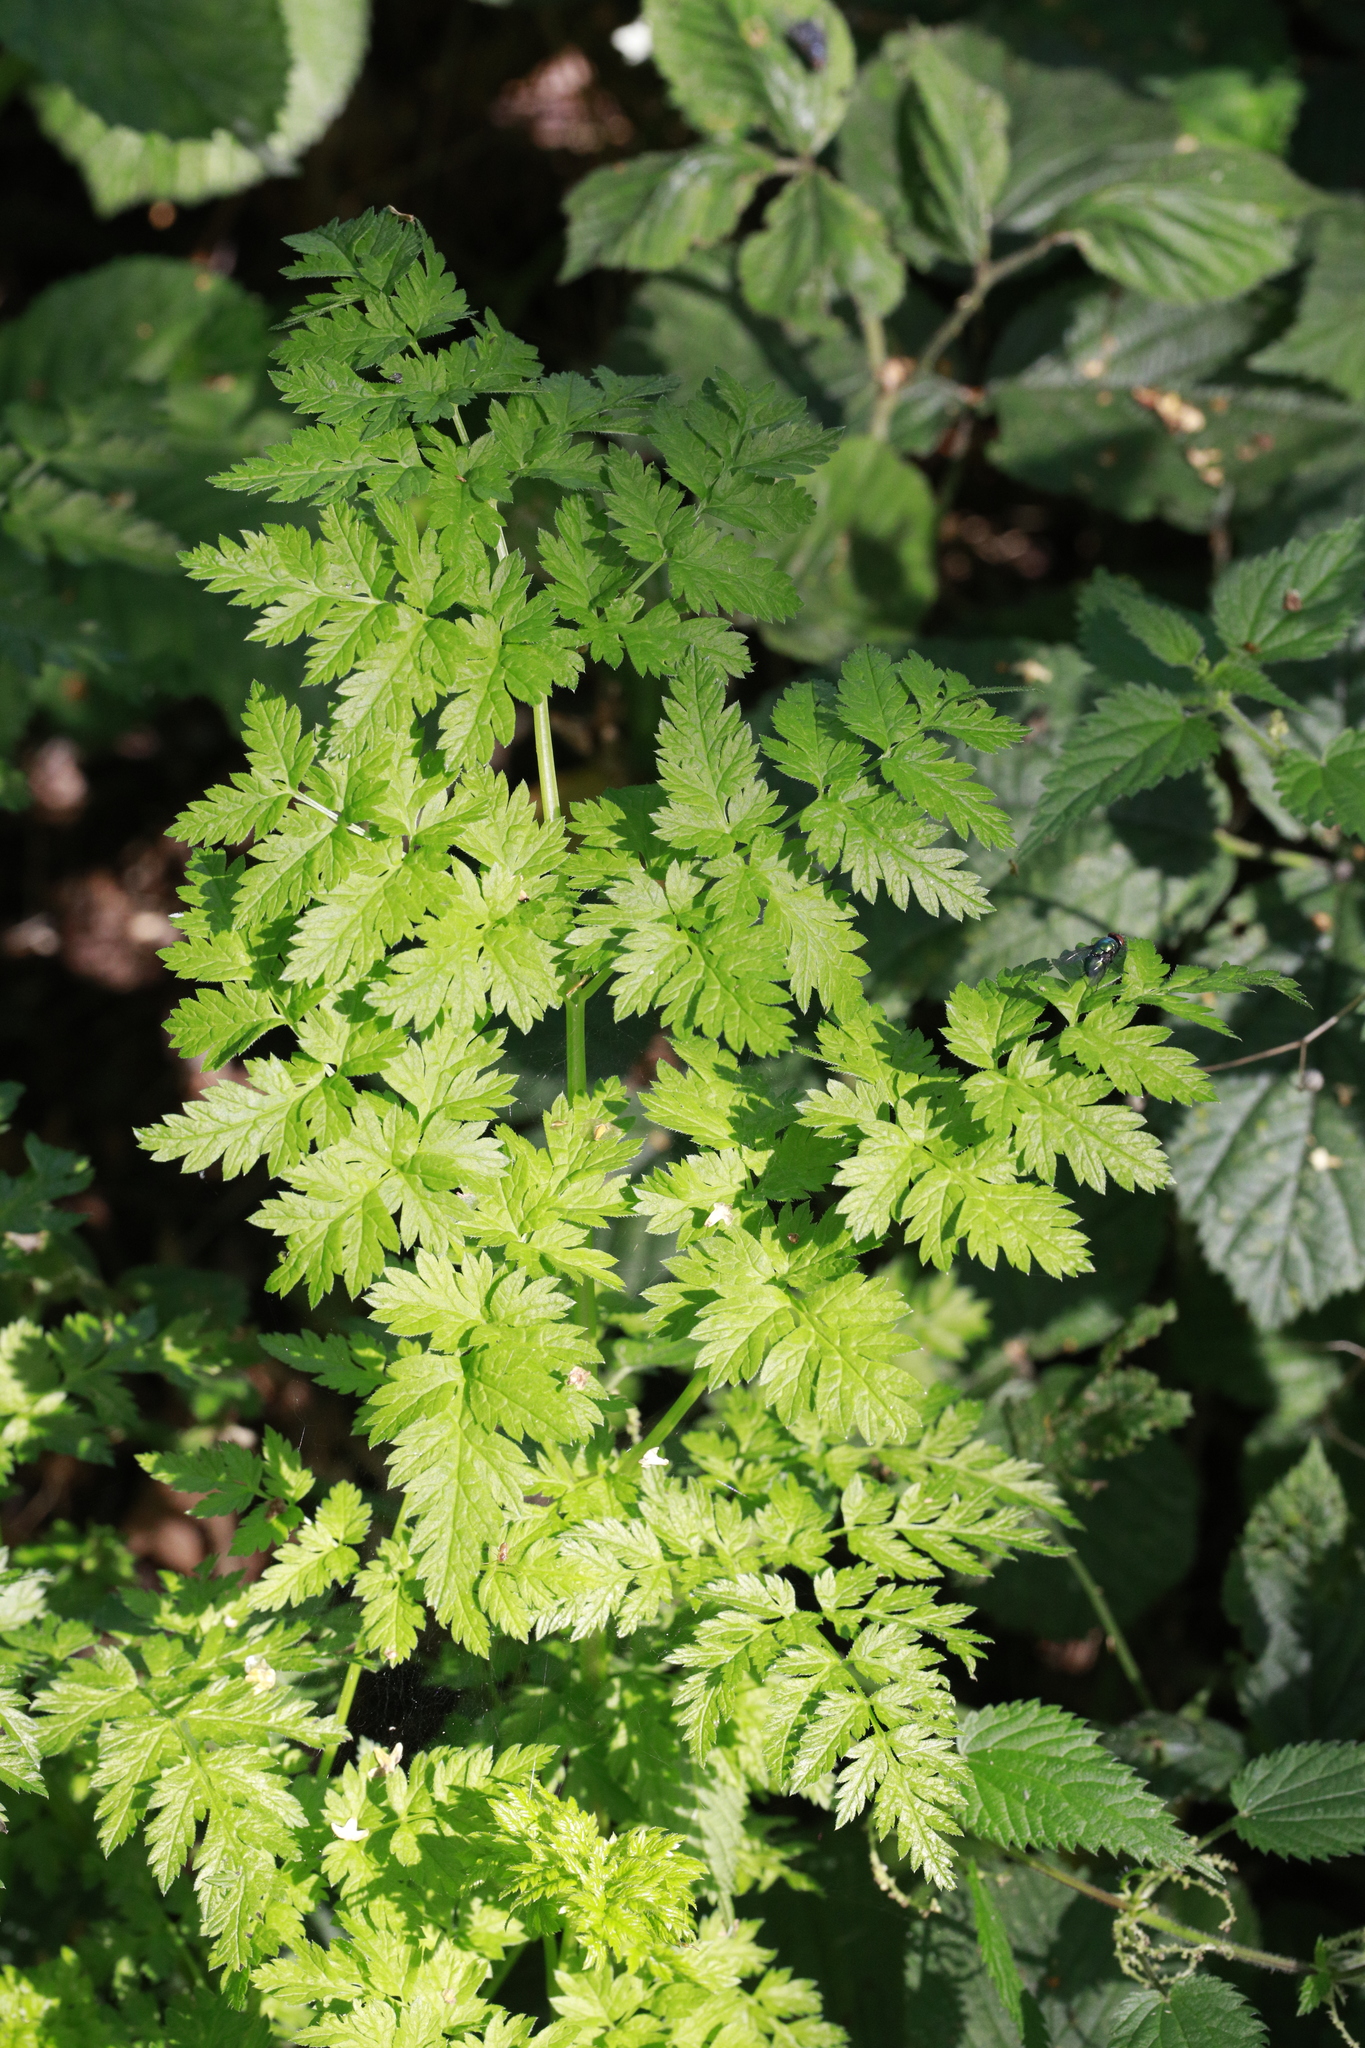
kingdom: Plantae
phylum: Tracheophyta
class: Magnoliopsida
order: Apiales
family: Apiaceae
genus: Anthriscus
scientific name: Anthriscus sylvestris
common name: Cow parsley
